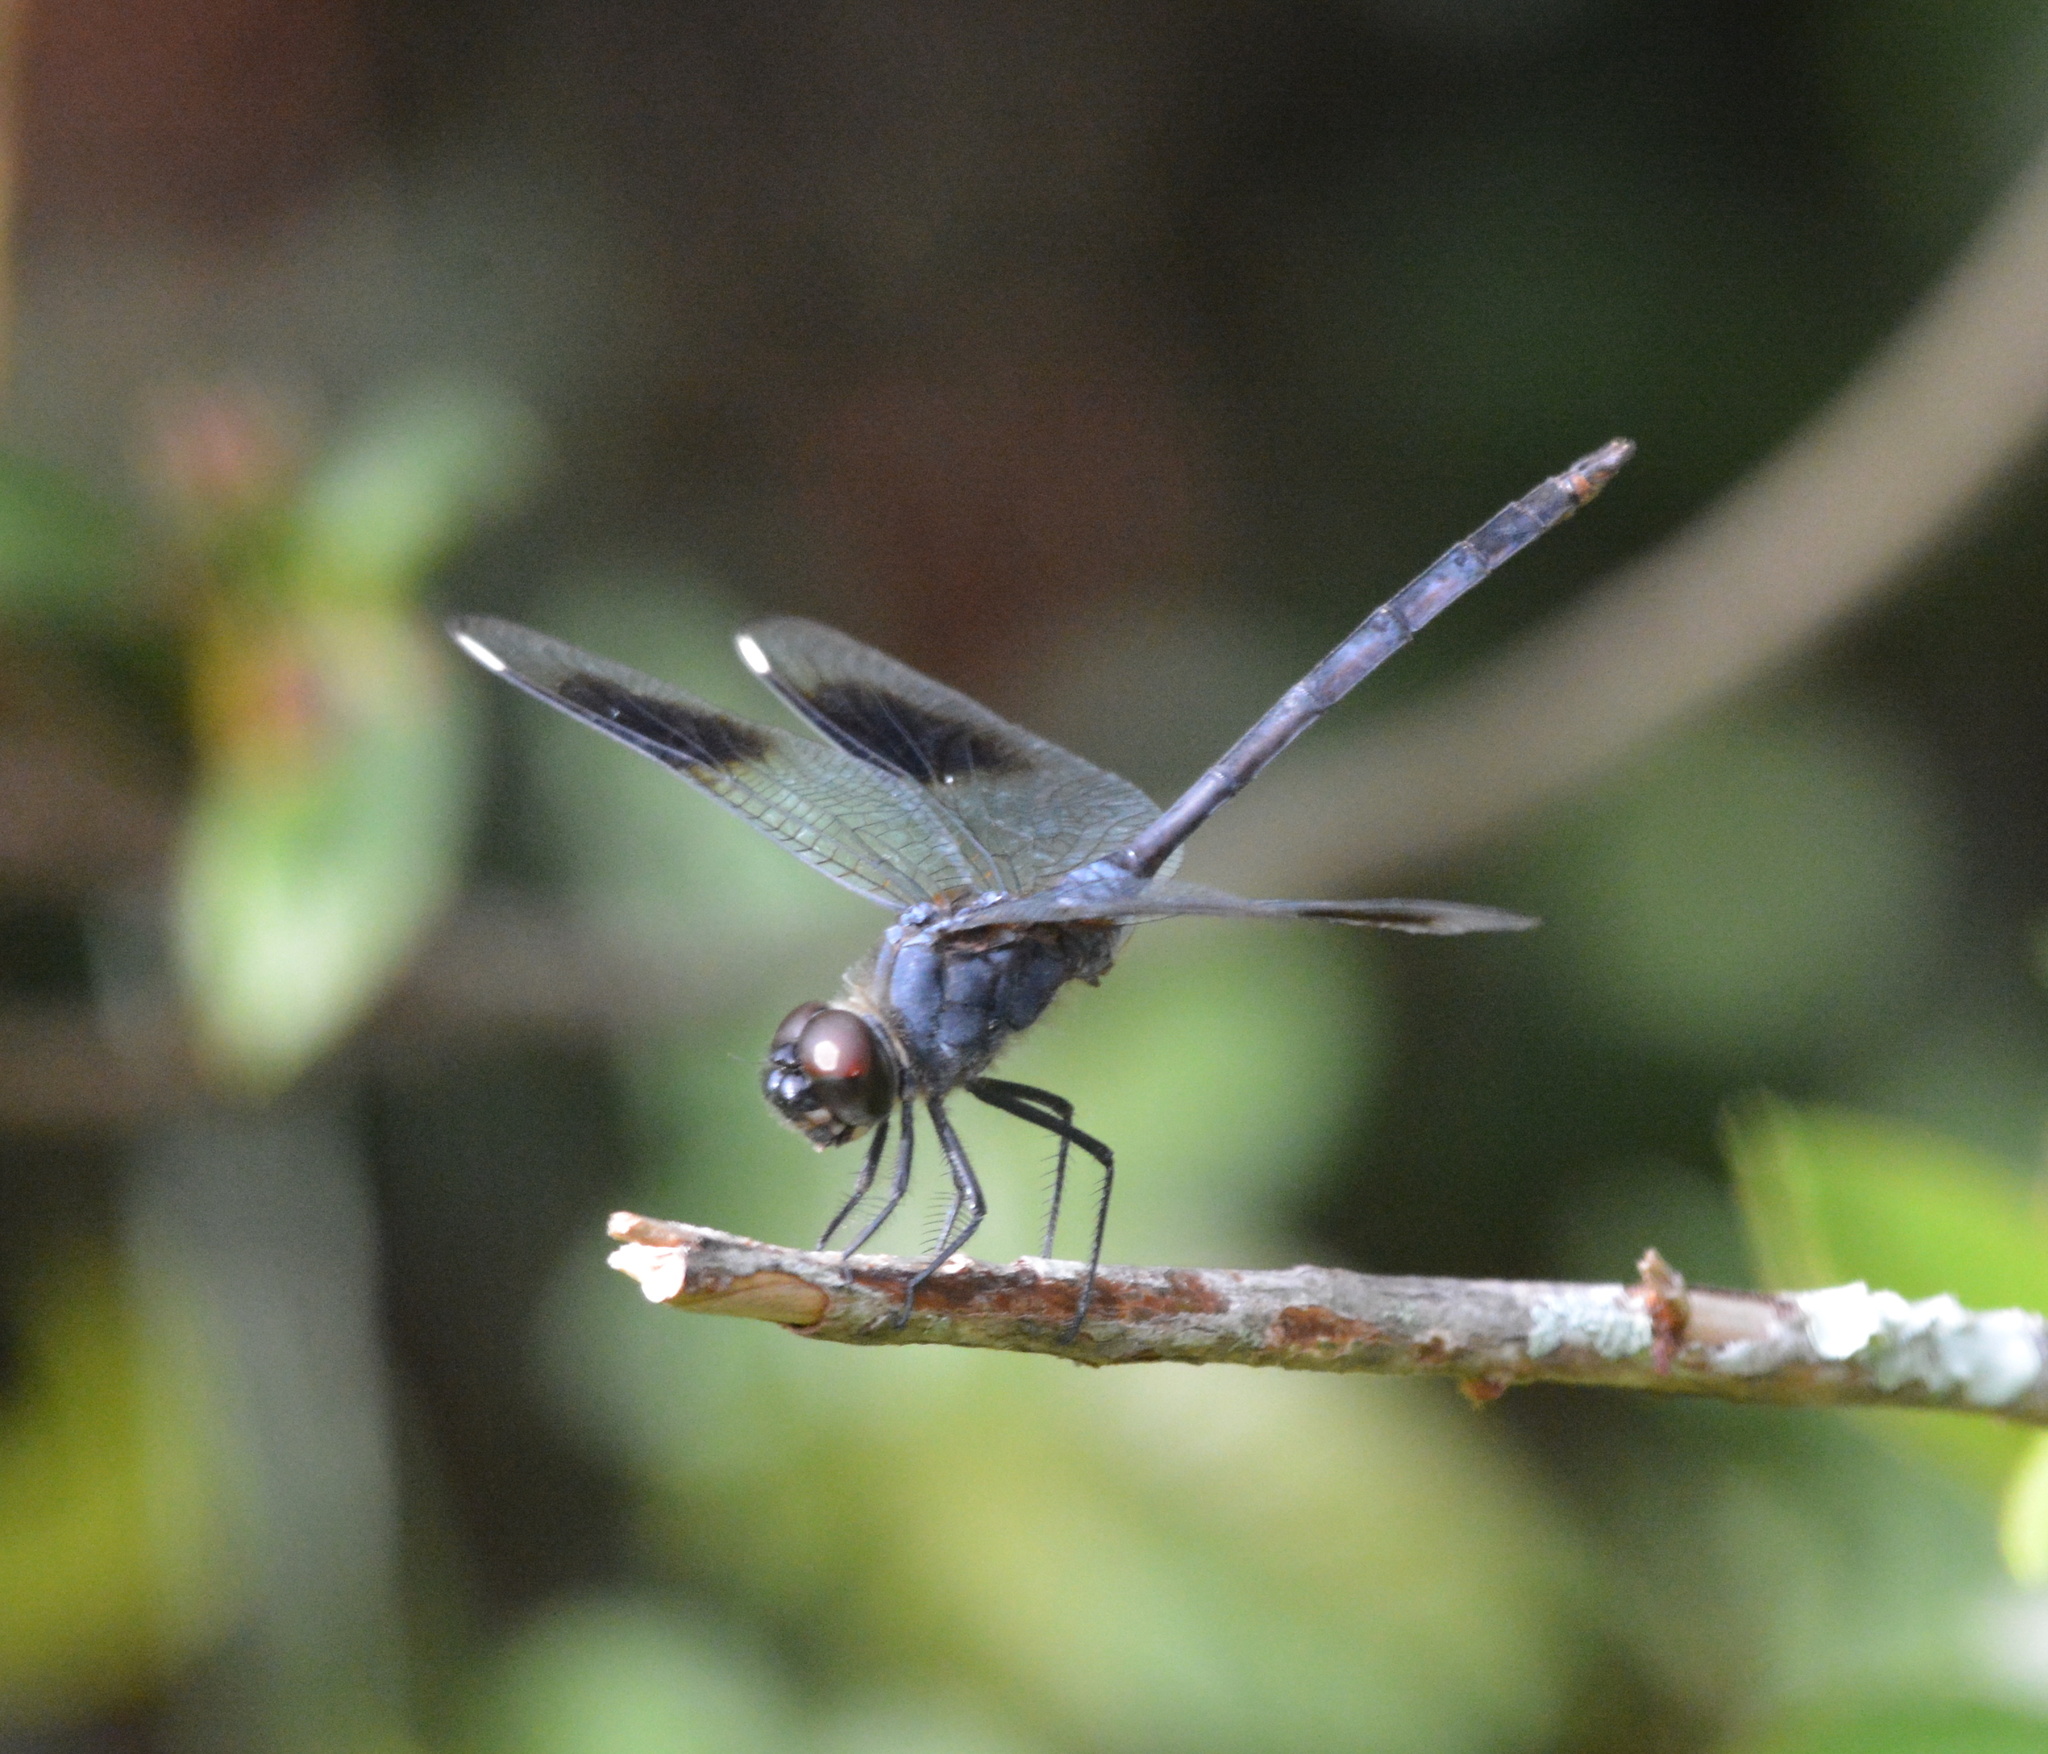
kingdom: Animalia
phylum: Arthropoda
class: Insecta
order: Odonata
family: Libellulidae
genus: Brachymesia
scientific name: Brachymesia gravida
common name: Four-spotted pennant
